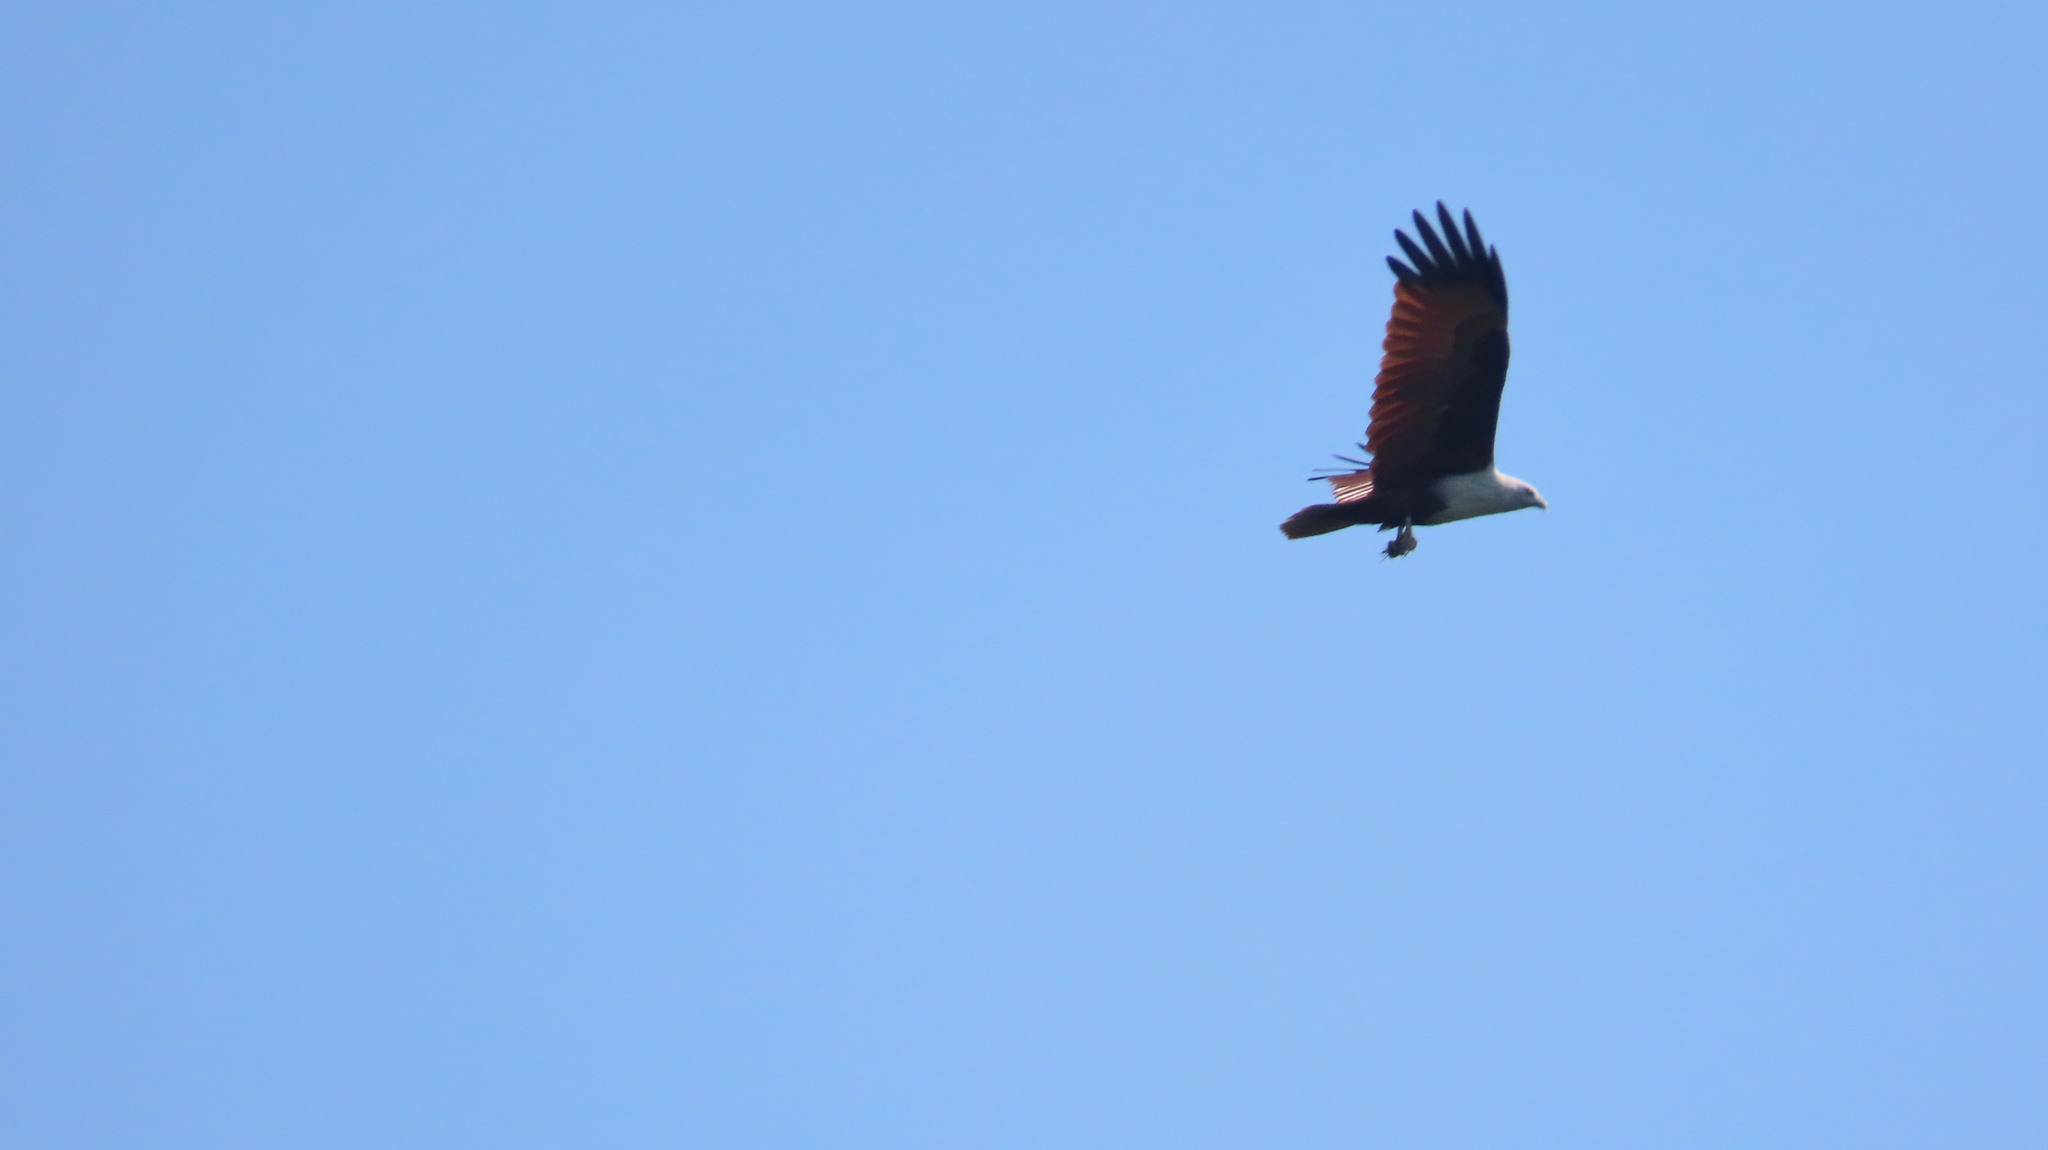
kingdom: Animalia
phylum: Chordata
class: Aves
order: Accipitriformes
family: Accipitridae
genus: Haliastur
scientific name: Haliastur indus
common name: Brahminy kite
